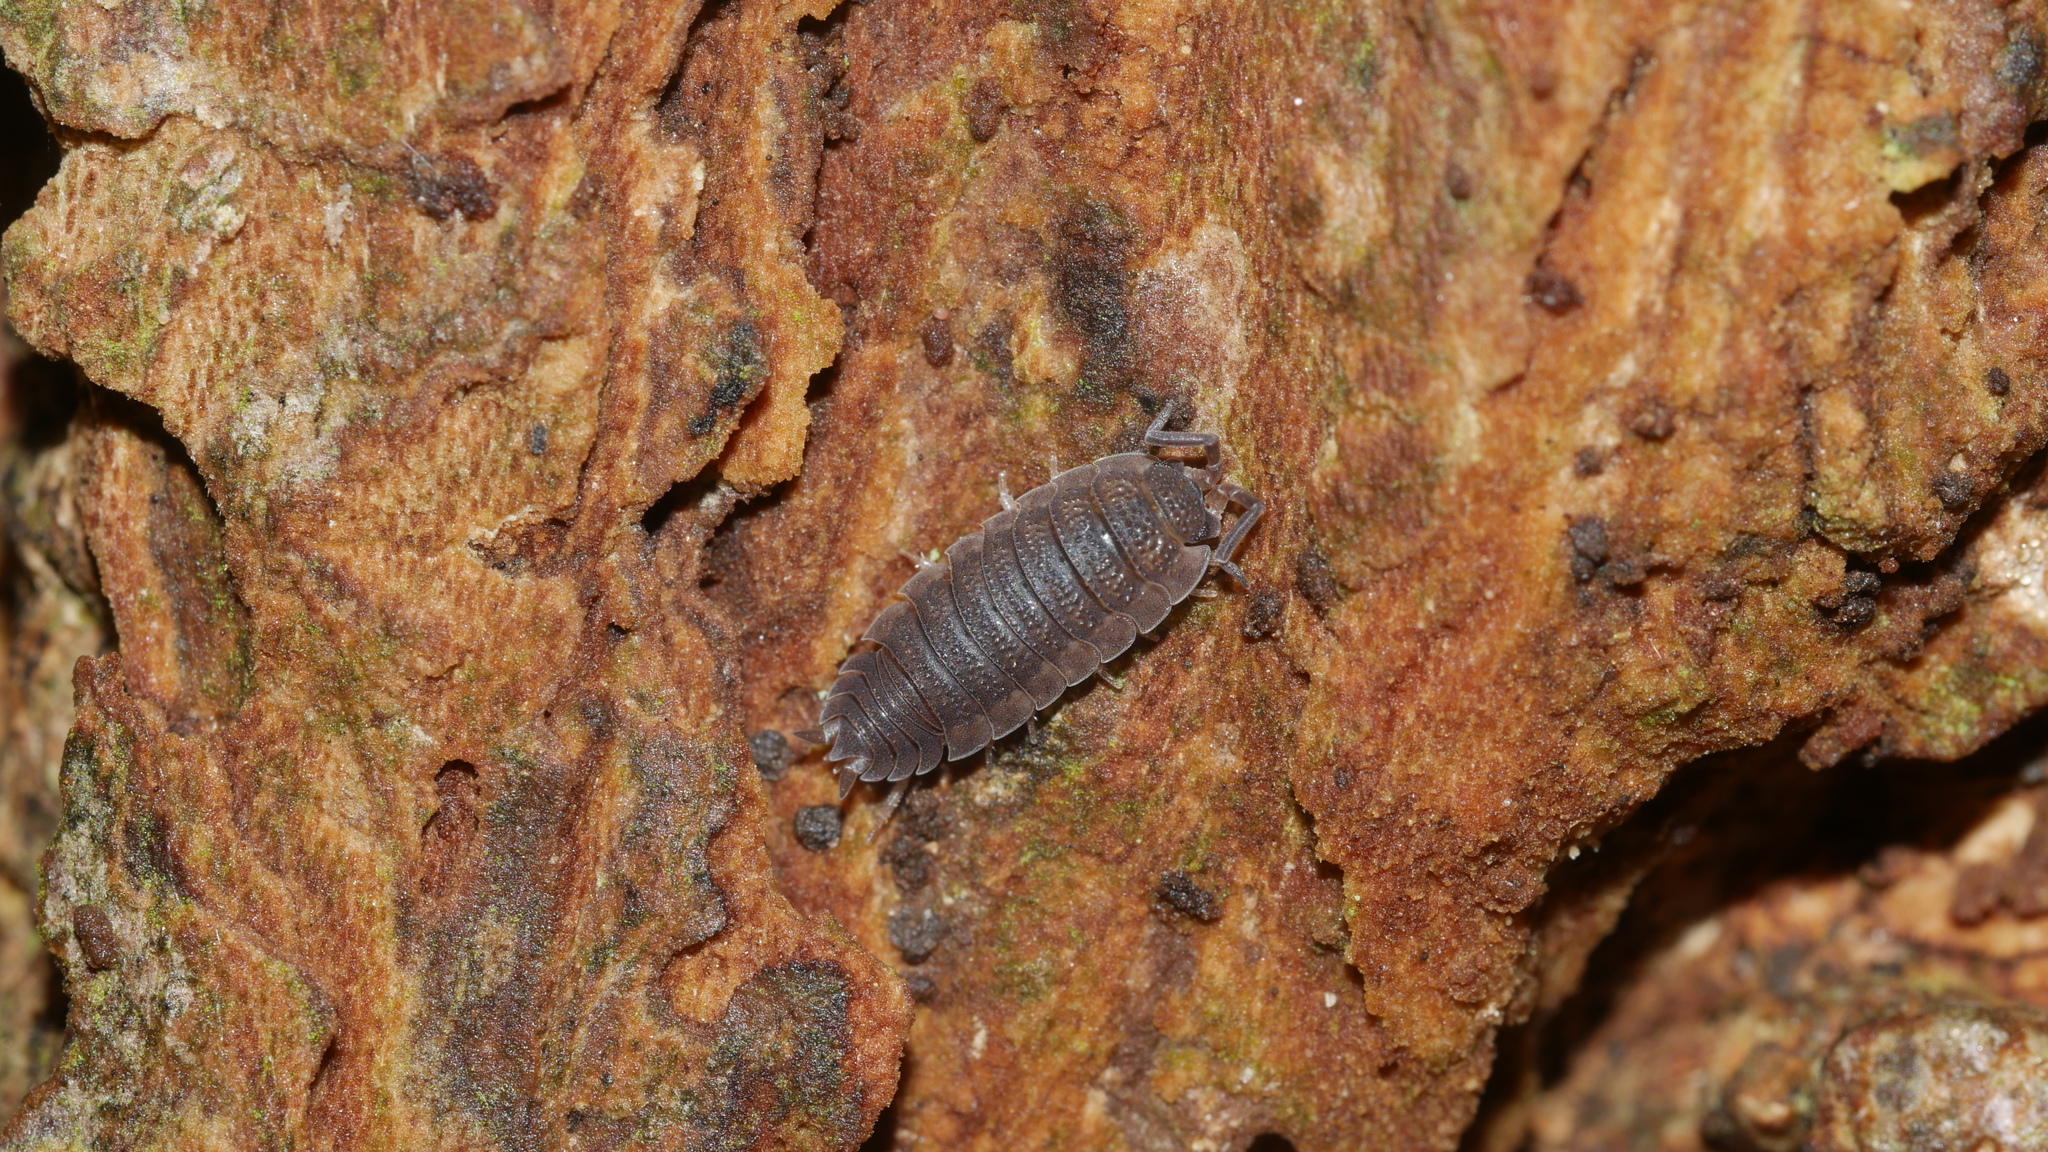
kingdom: Animalia
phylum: Arthropoda
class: Malacostraca
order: Isopoda
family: Porcellionidae
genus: Porcellio
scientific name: Porcellio scaber
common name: Common rough woodlouse
